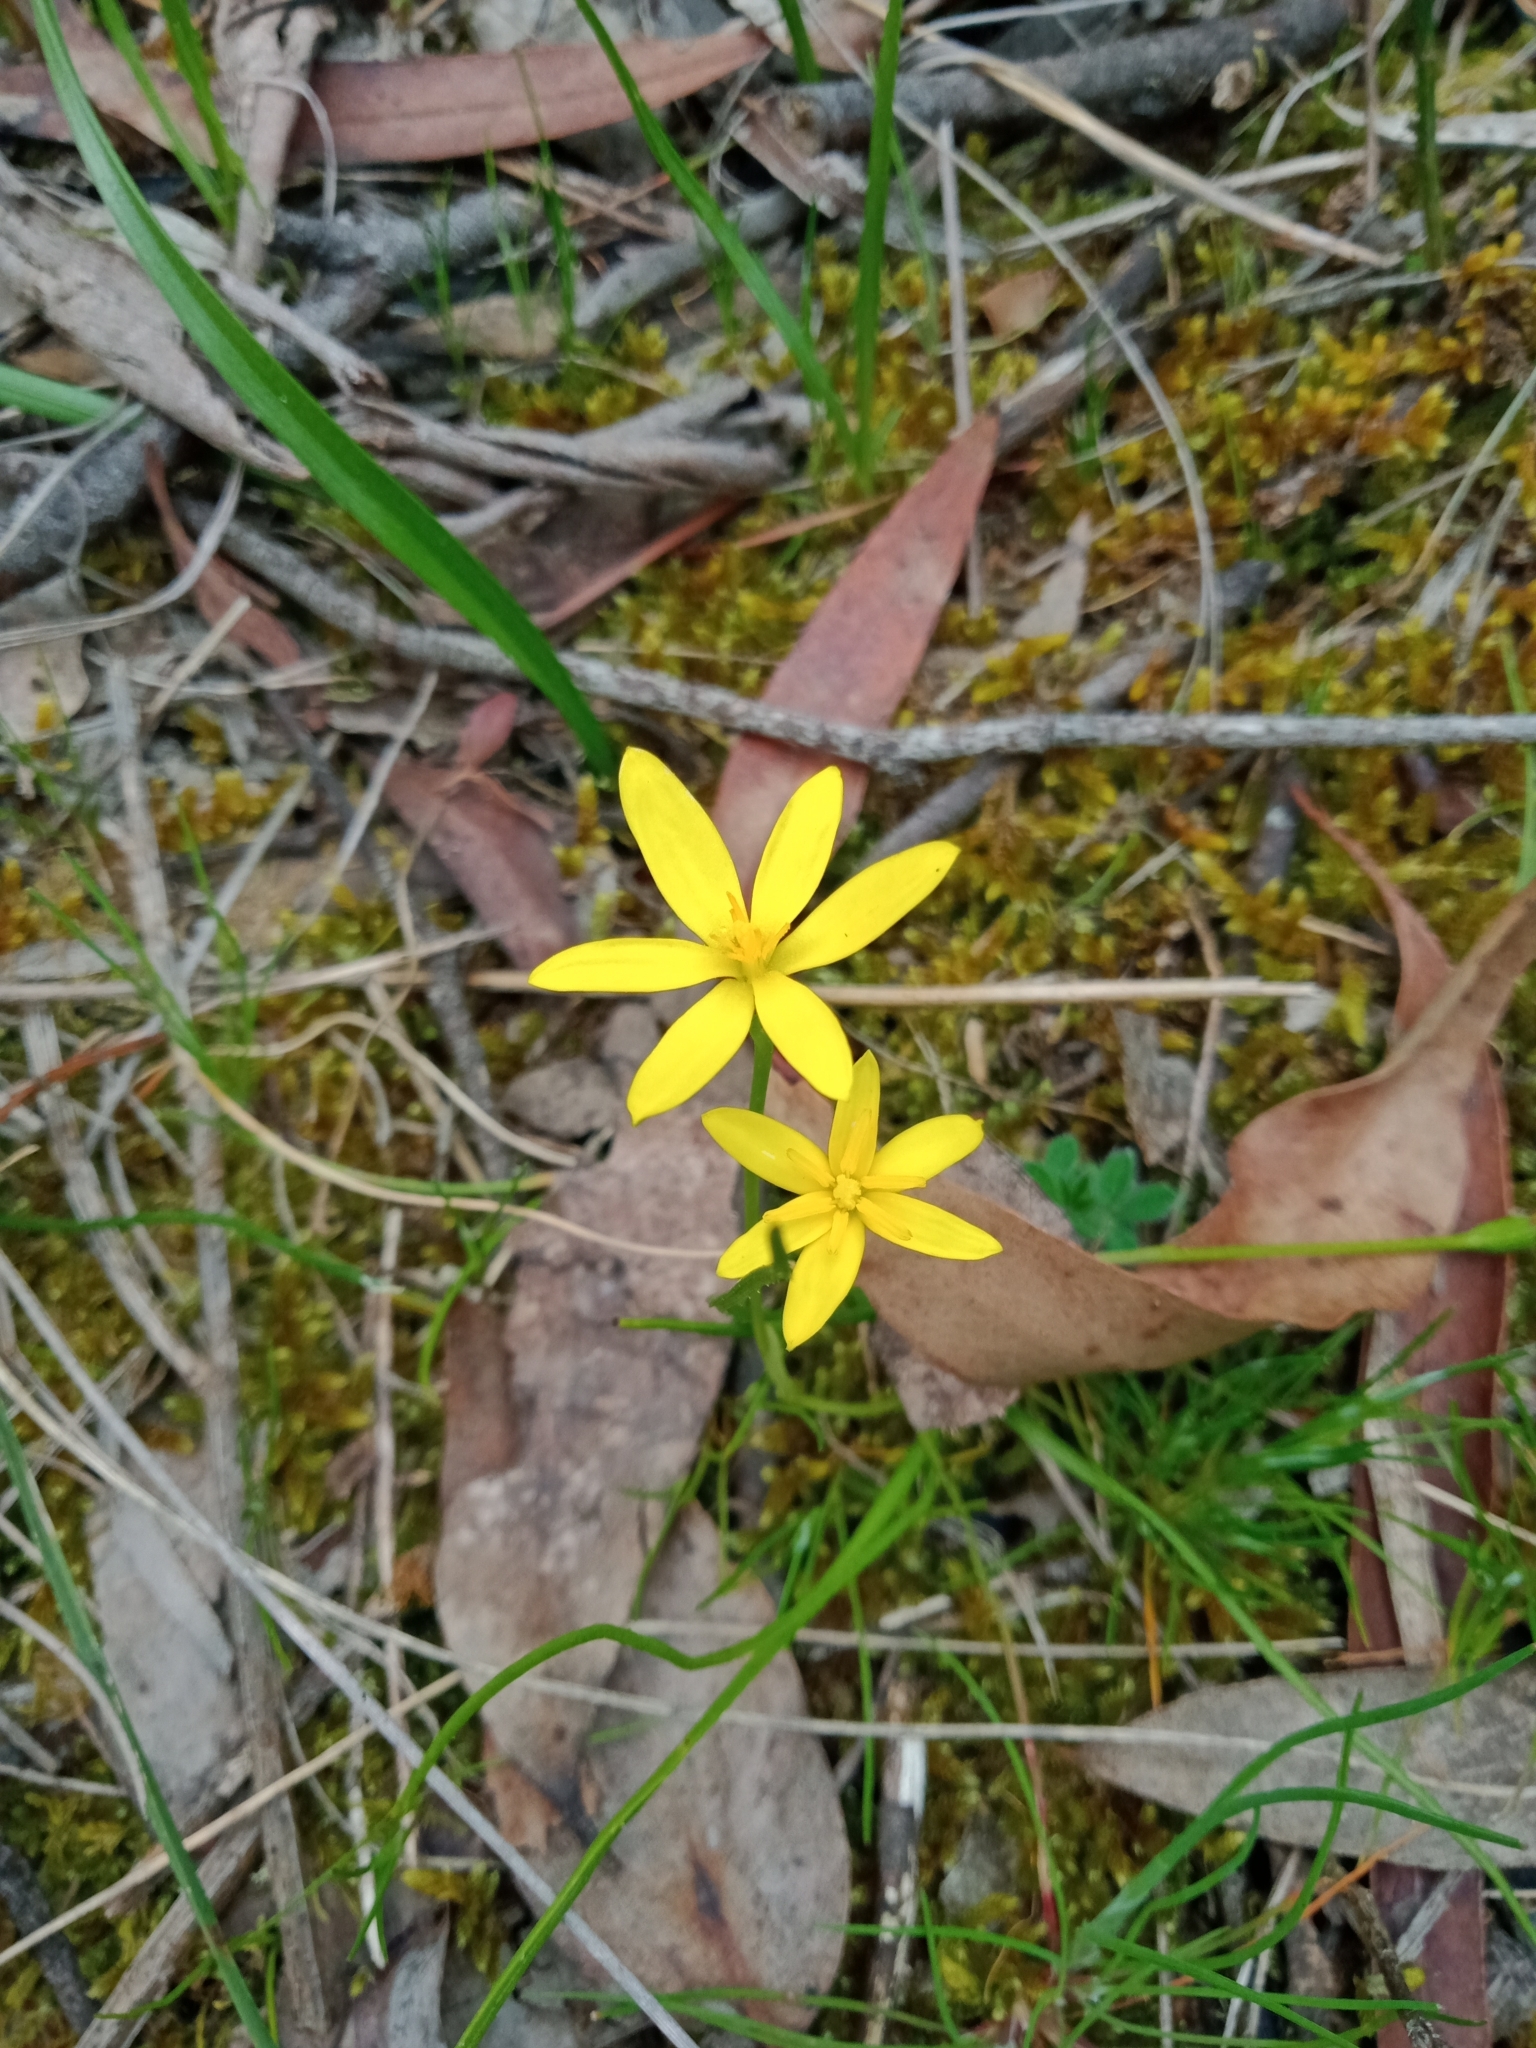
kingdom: Plantae
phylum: Tracheophyta
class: Liliopsida
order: Asparagales
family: Hypoxidaceae
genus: Pauridia
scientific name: Pauridia vaginata
